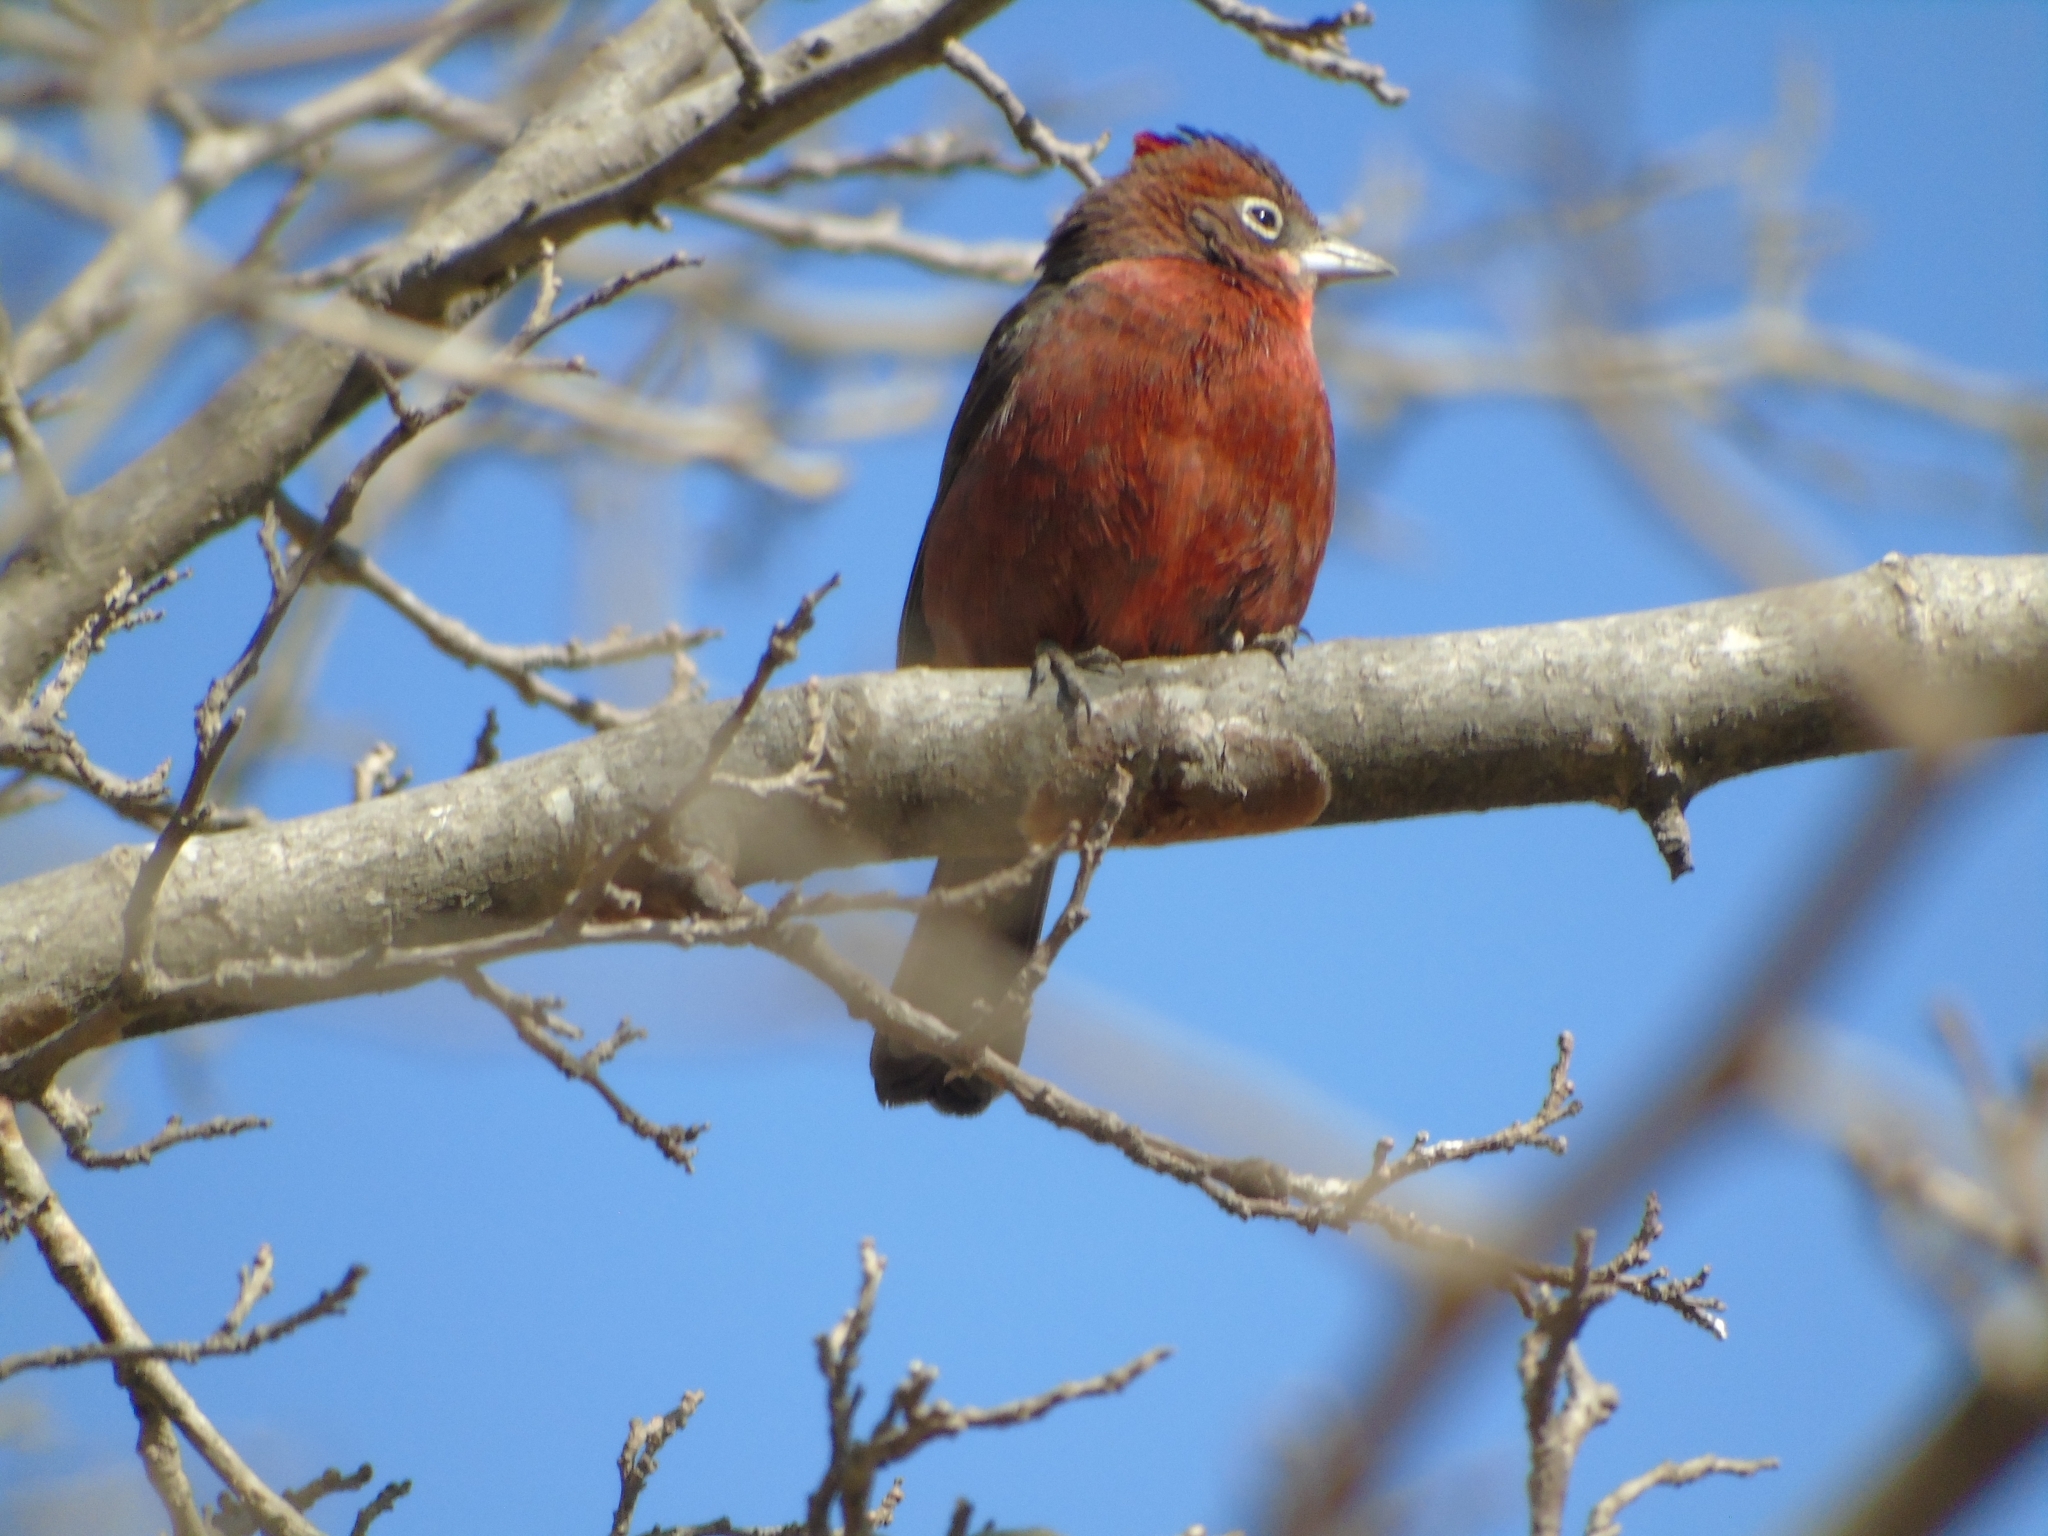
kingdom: Animalia
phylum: Chordata
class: Aves
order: Passeriformes
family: Thraupidae
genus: Coryphospingus
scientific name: Coryphospingus cucullatus
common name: Red pileated finch
